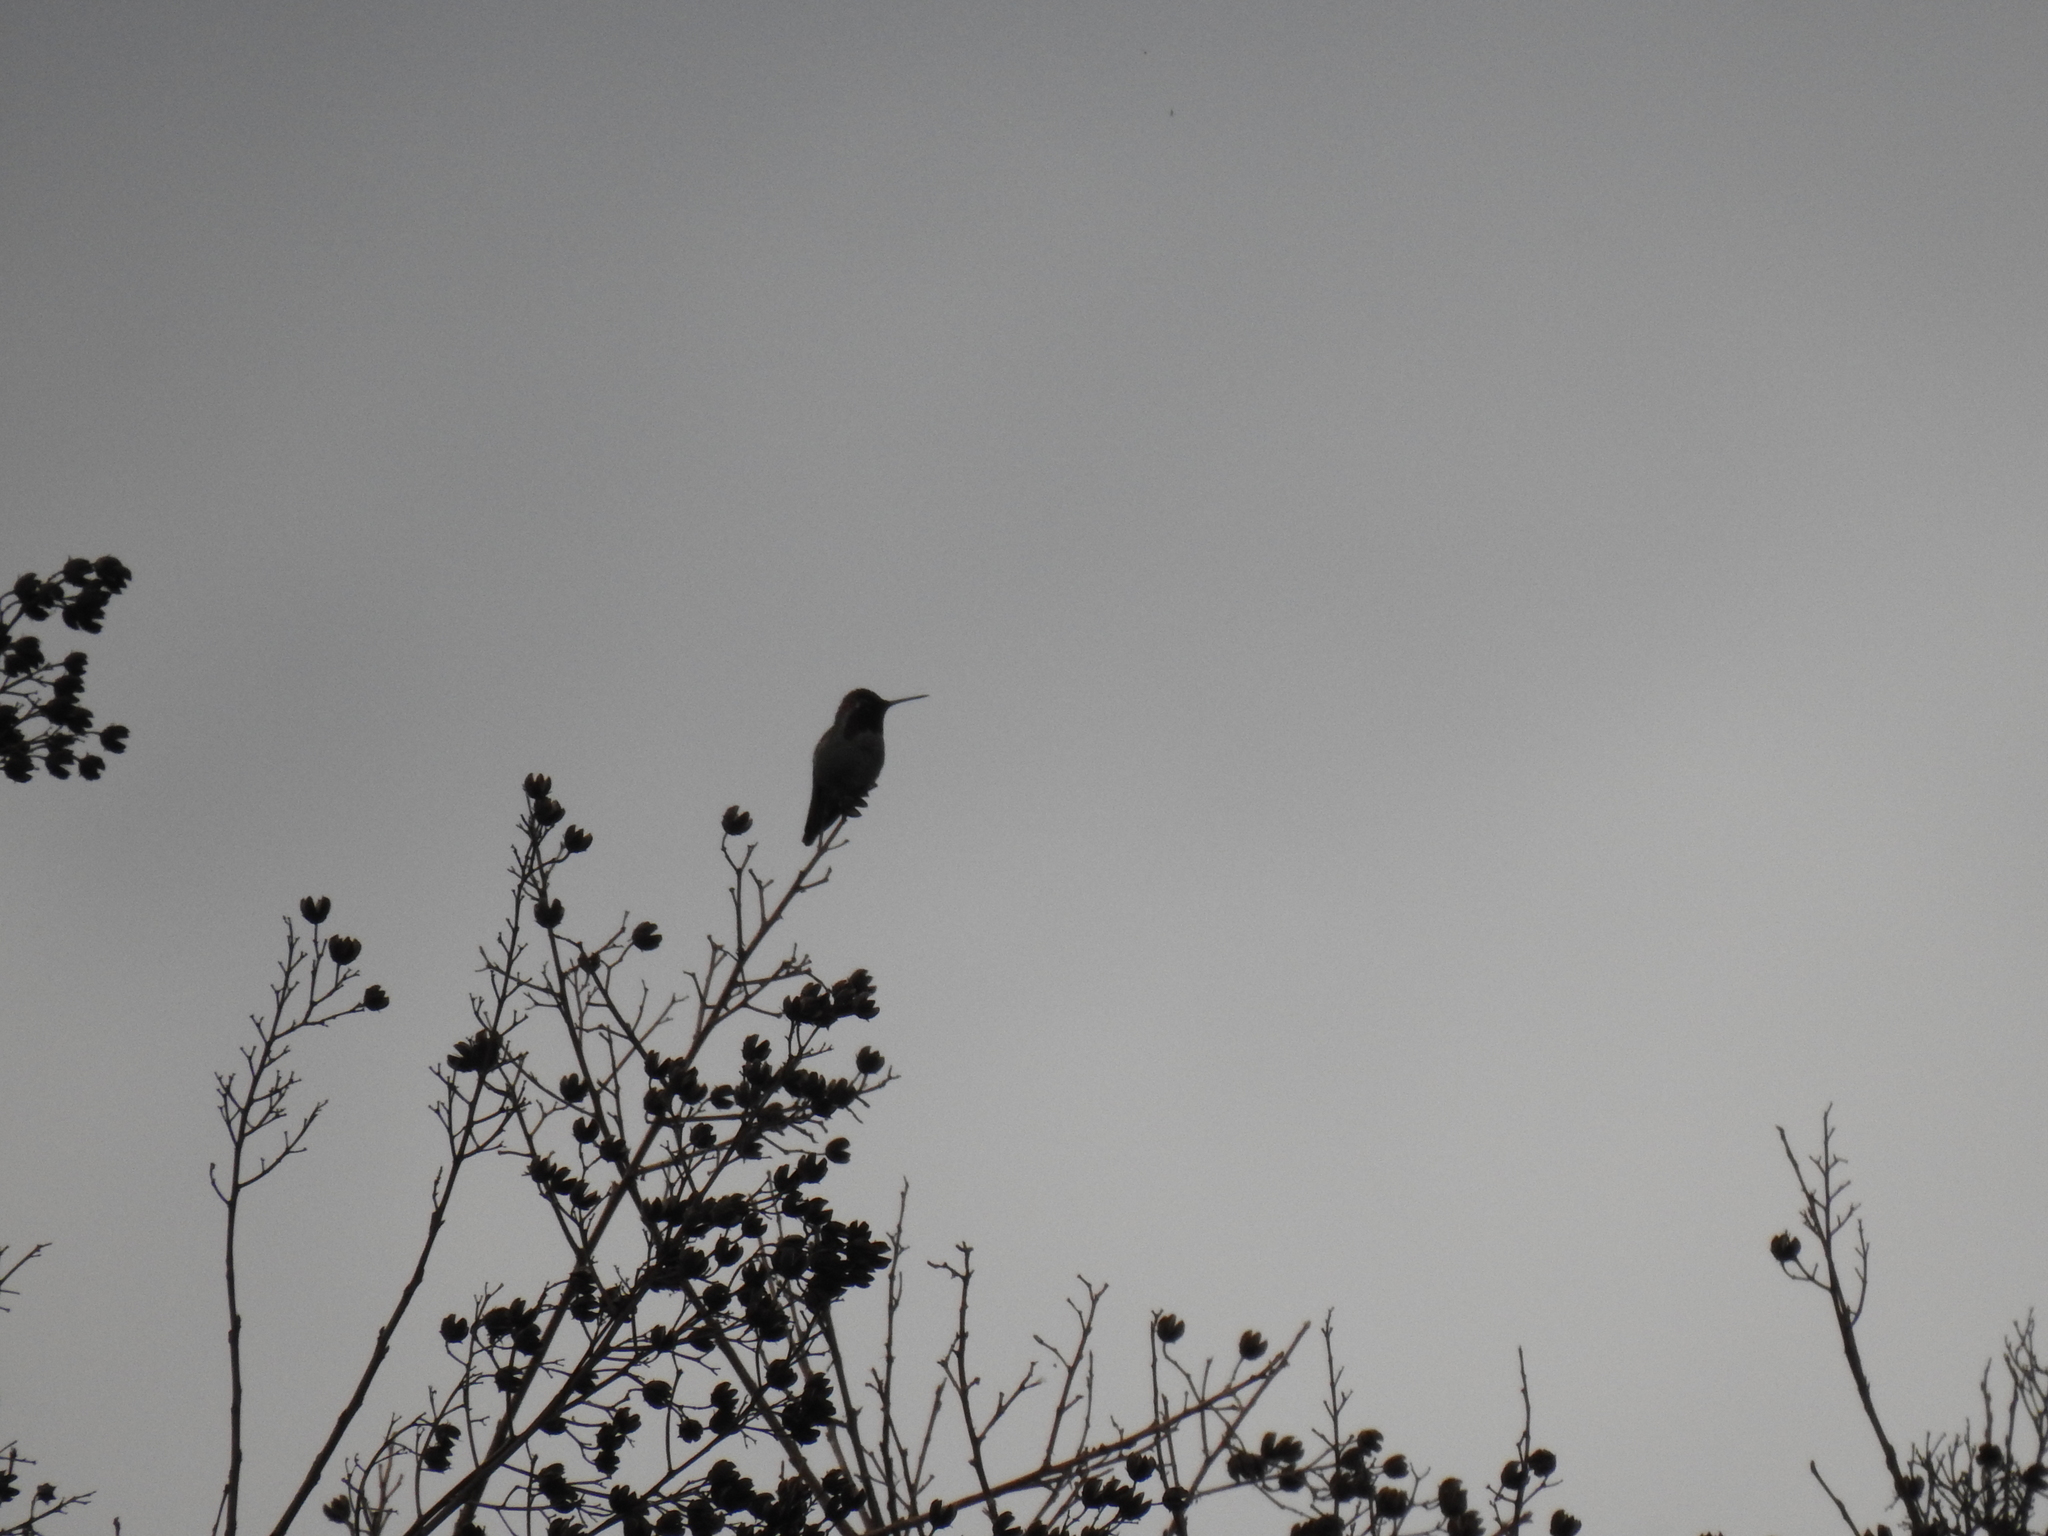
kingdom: Animalia
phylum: Chordata
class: Aves
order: Apodiformes
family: Trochilidae
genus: Calypte
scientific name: Calypte anna
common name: Anna's hummingbird
